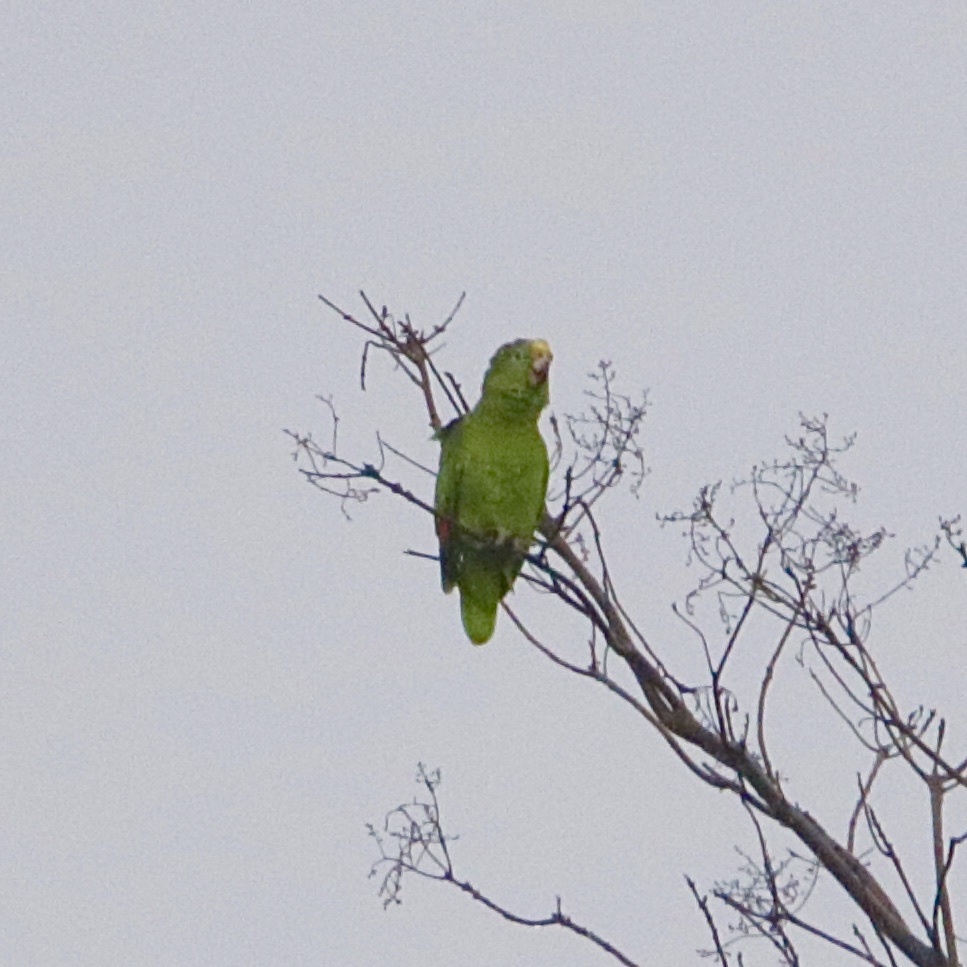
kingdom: Animalia
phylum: Chordata
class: Aves
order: Psittaciformes
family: Psittacidae
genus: Amazona
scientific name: Amazona ochrocephala
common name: Yellow-crowned amazon
